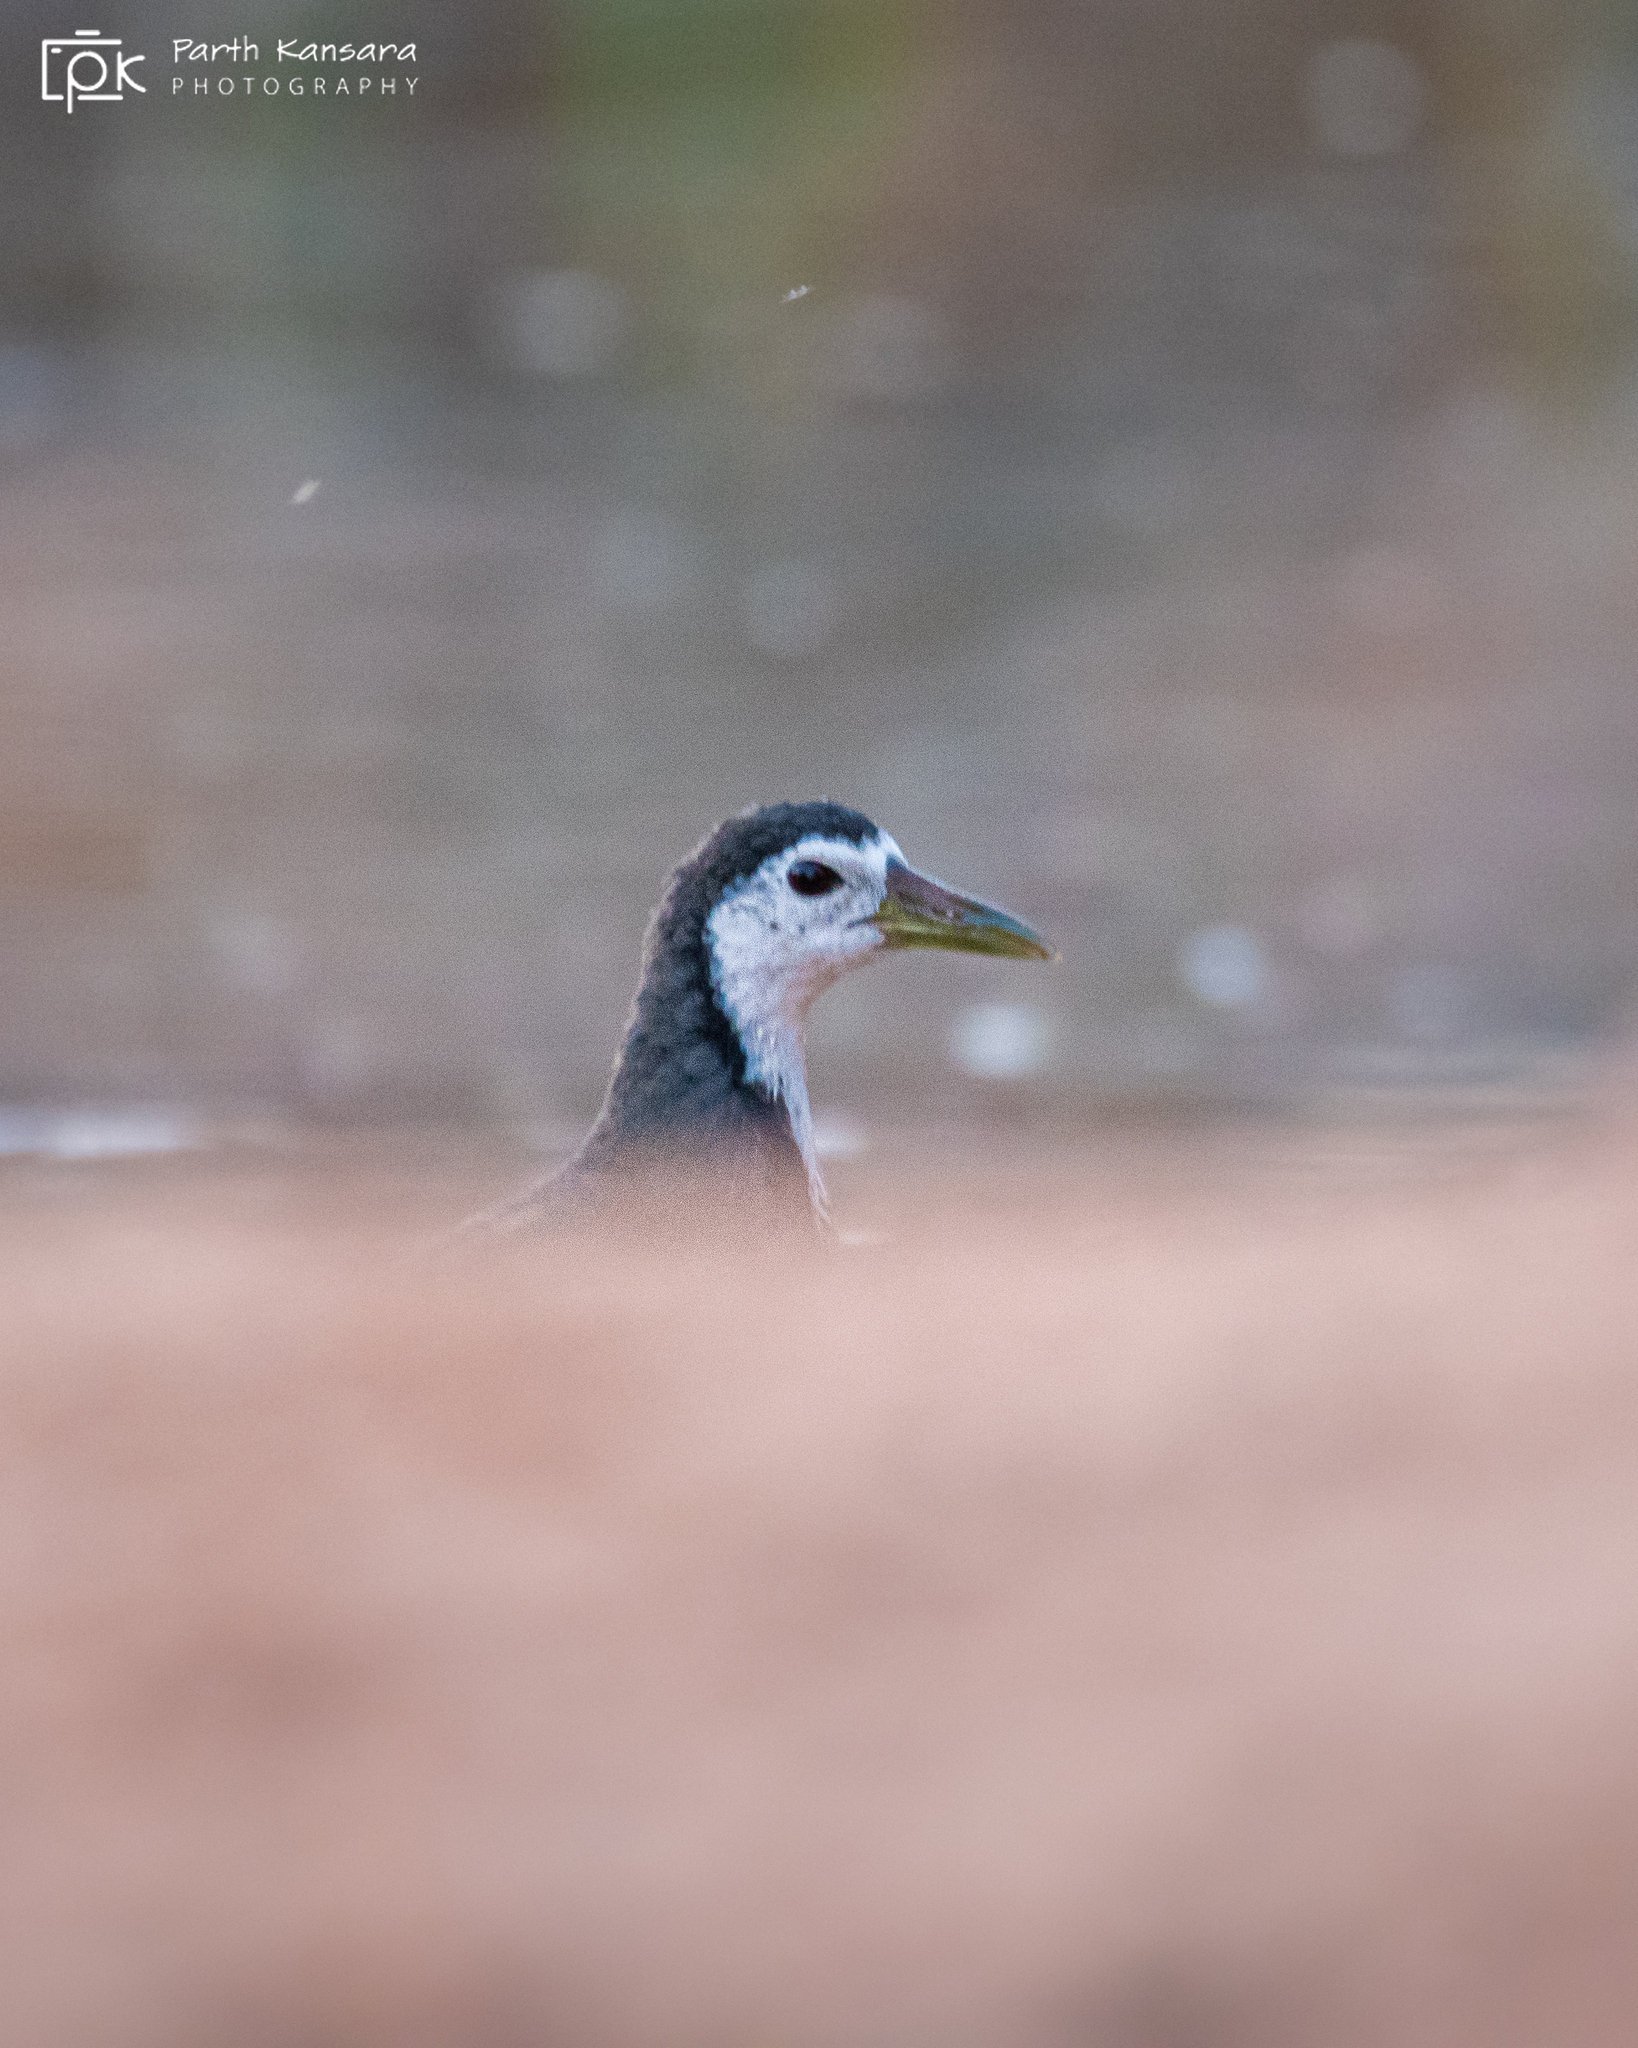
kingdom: Animalia
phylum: Chordata
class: Aves
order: Gruiformes
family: Rallidae
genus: Amaurornis
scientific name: Amaurornis phoenicurus
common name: White-breasted waterhen
